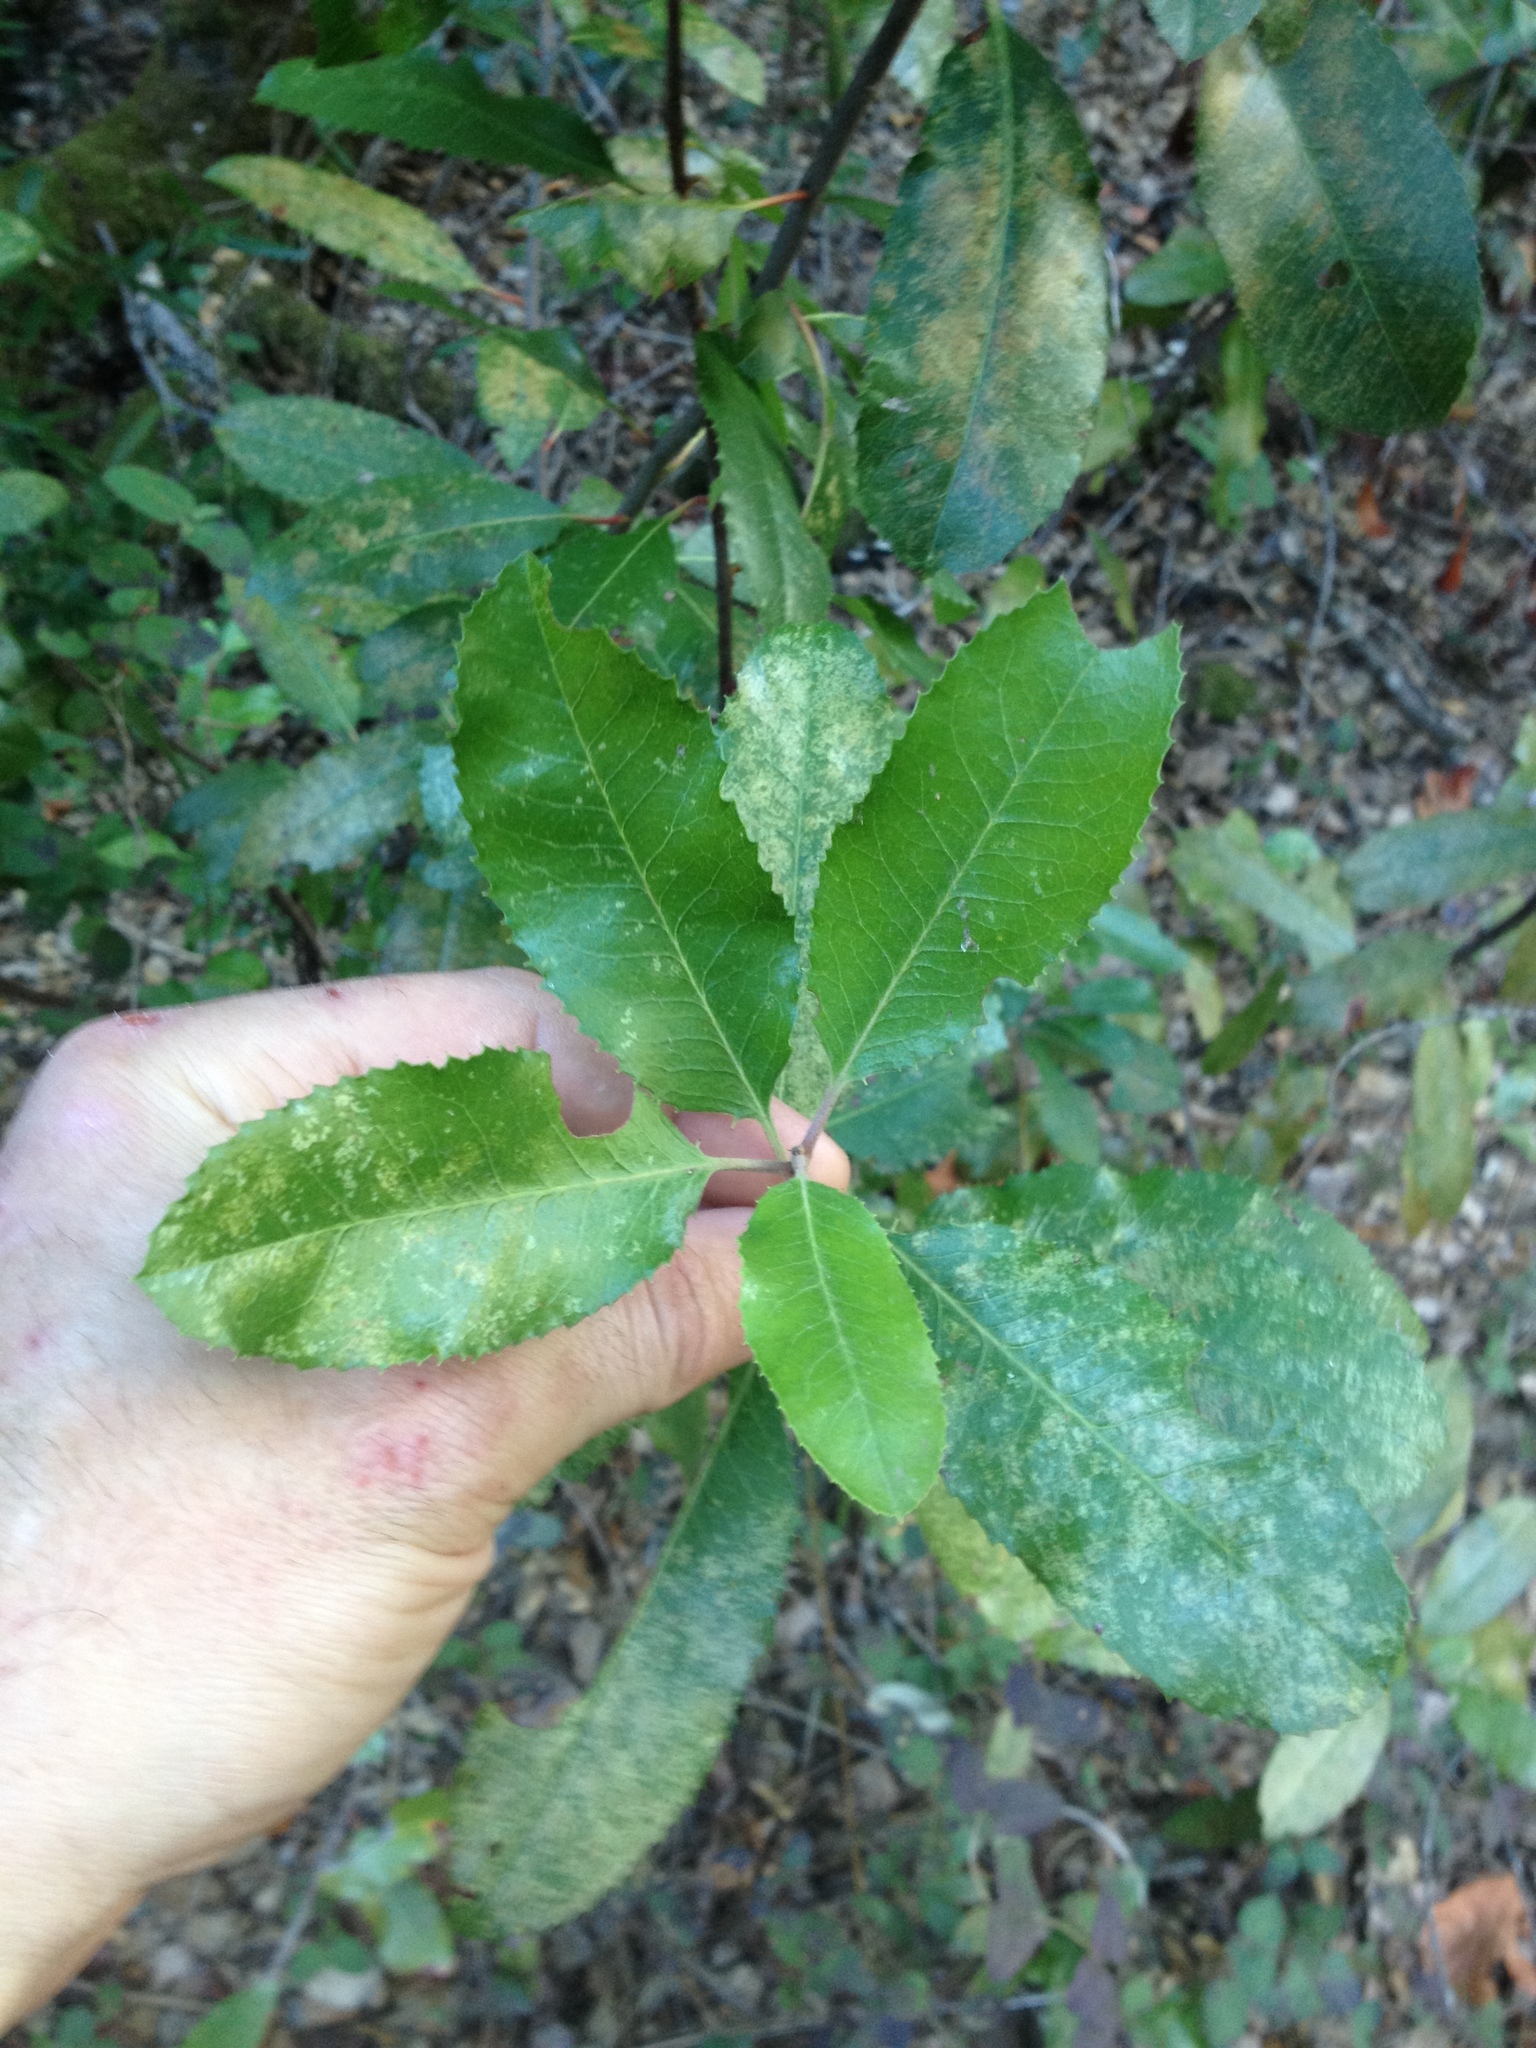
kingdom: Plantae
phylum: Tracheophyta
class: Magnoliopsida
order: Rosales
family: Rosaceae
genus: Heteromeles
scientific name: Heteromeles arbutifolia
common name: California-holly
